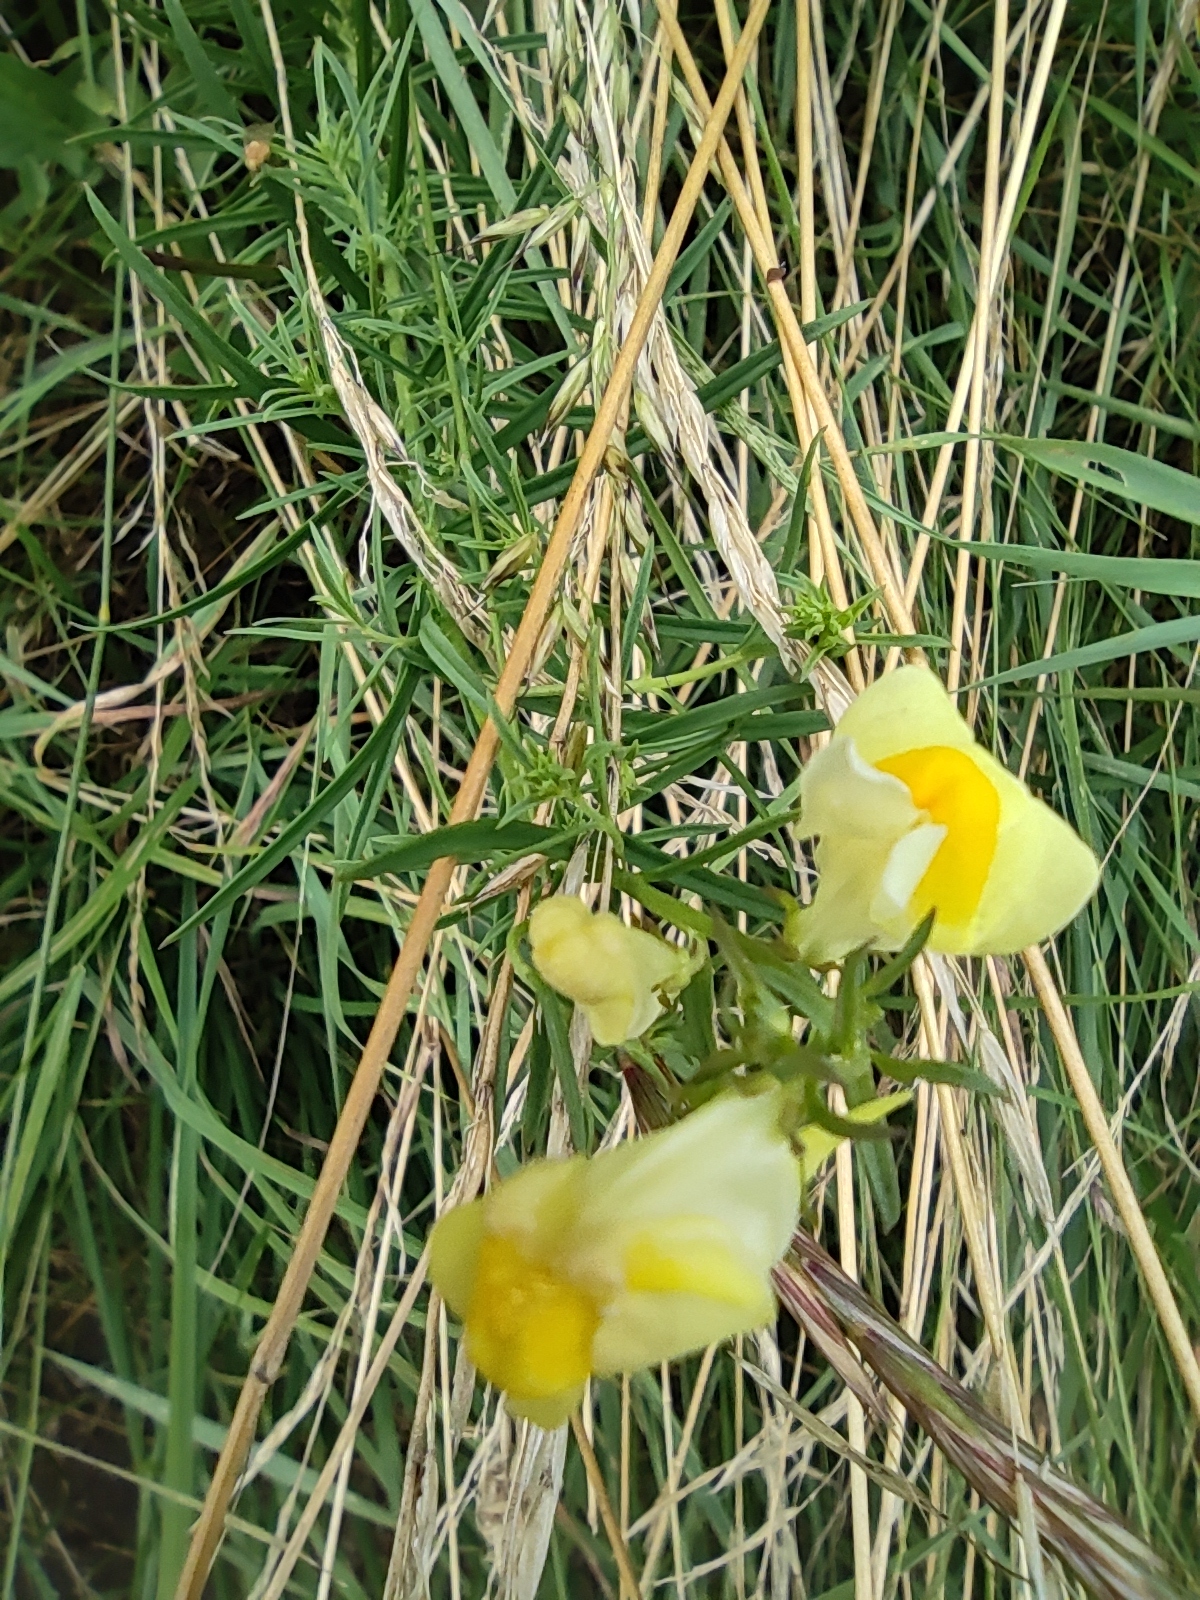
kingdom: Plantae
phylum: Tracheophyta
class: Magnoliopsida
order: Lamiales
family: Plantaginaceae
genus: Linaria
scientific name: Linaria vulgaris
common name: Butter and eggs
